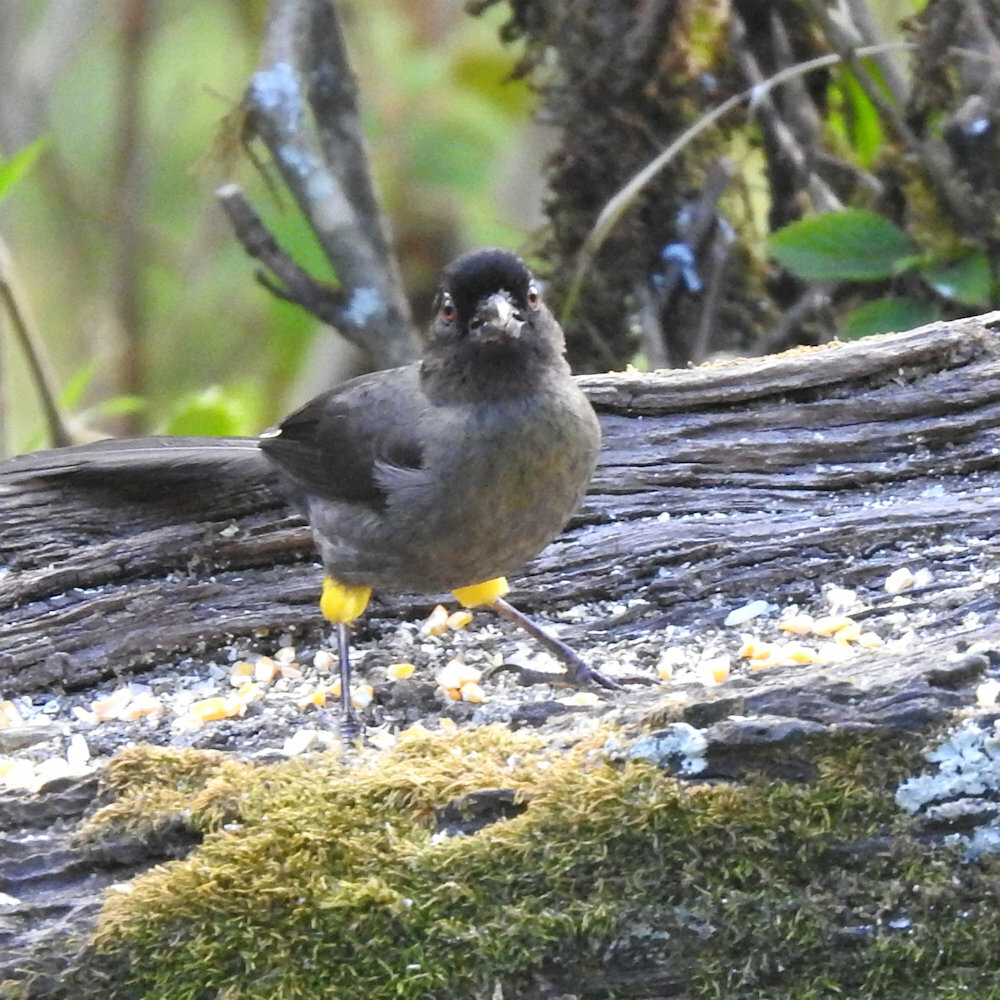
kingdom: Animalia
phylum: Chordata
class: Aves
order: Passeriformes
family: Passerellidae
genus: Atlapetes
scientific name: Atlapetes tibialis
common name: Yellow-thighed brushfinch
